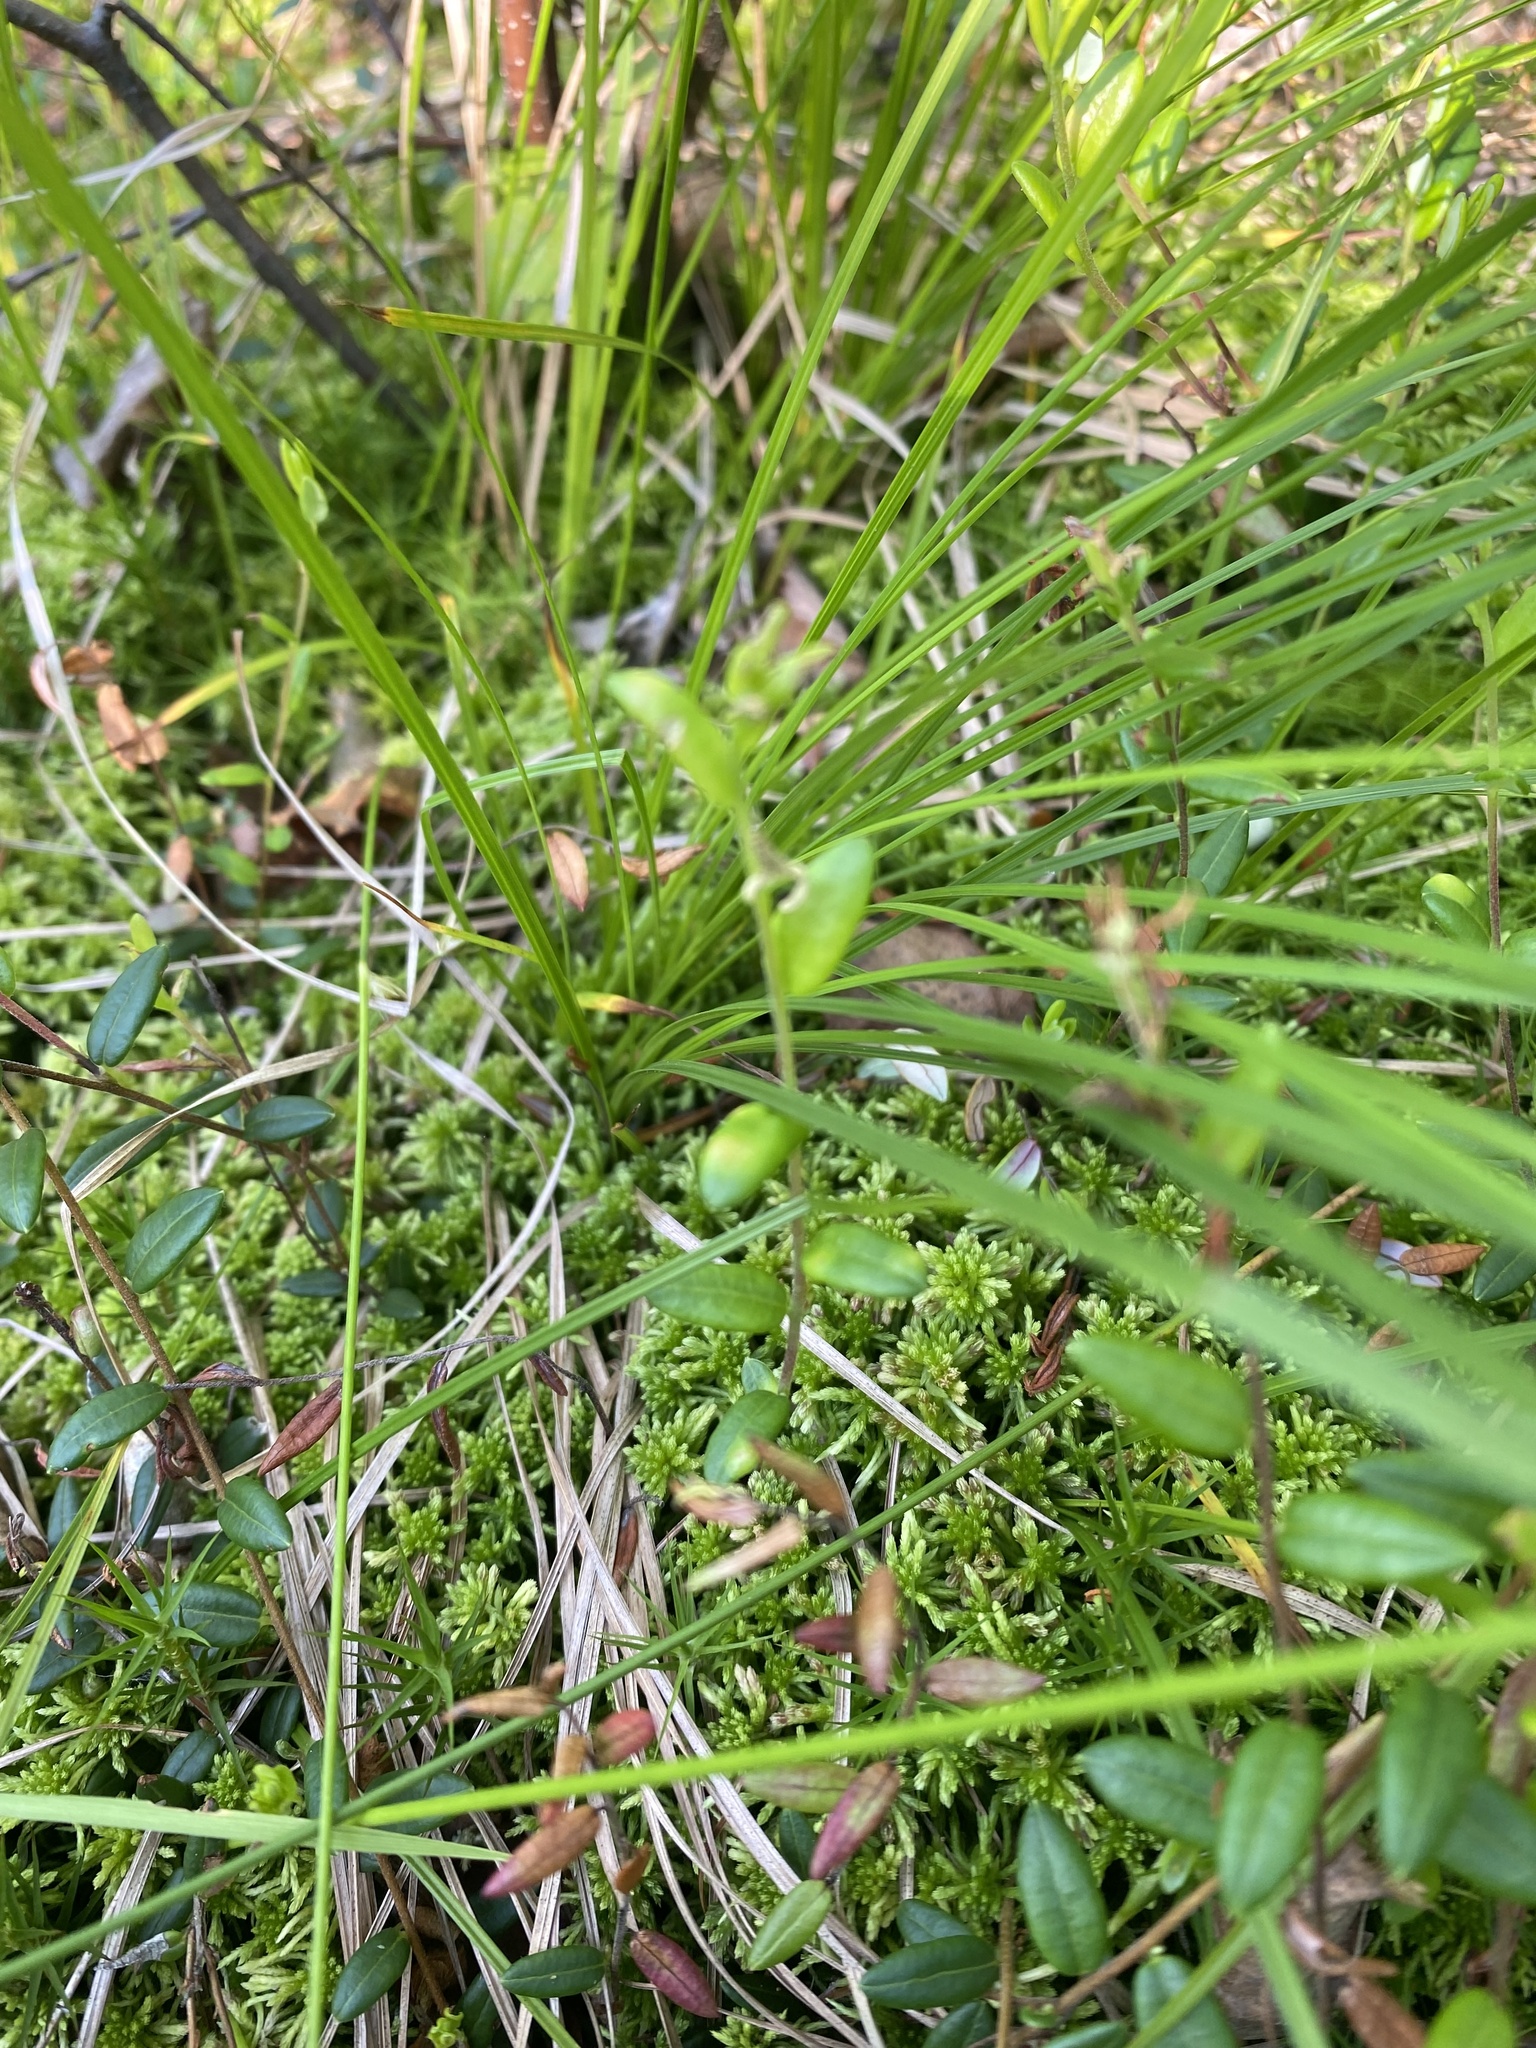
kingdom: Plantae
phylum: Tracheophyta
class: Magnoliopsida
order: Ericales
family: Ericaceae
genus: Vaccinium
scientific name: Vaccinium oxycoccos
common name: Cranberry
